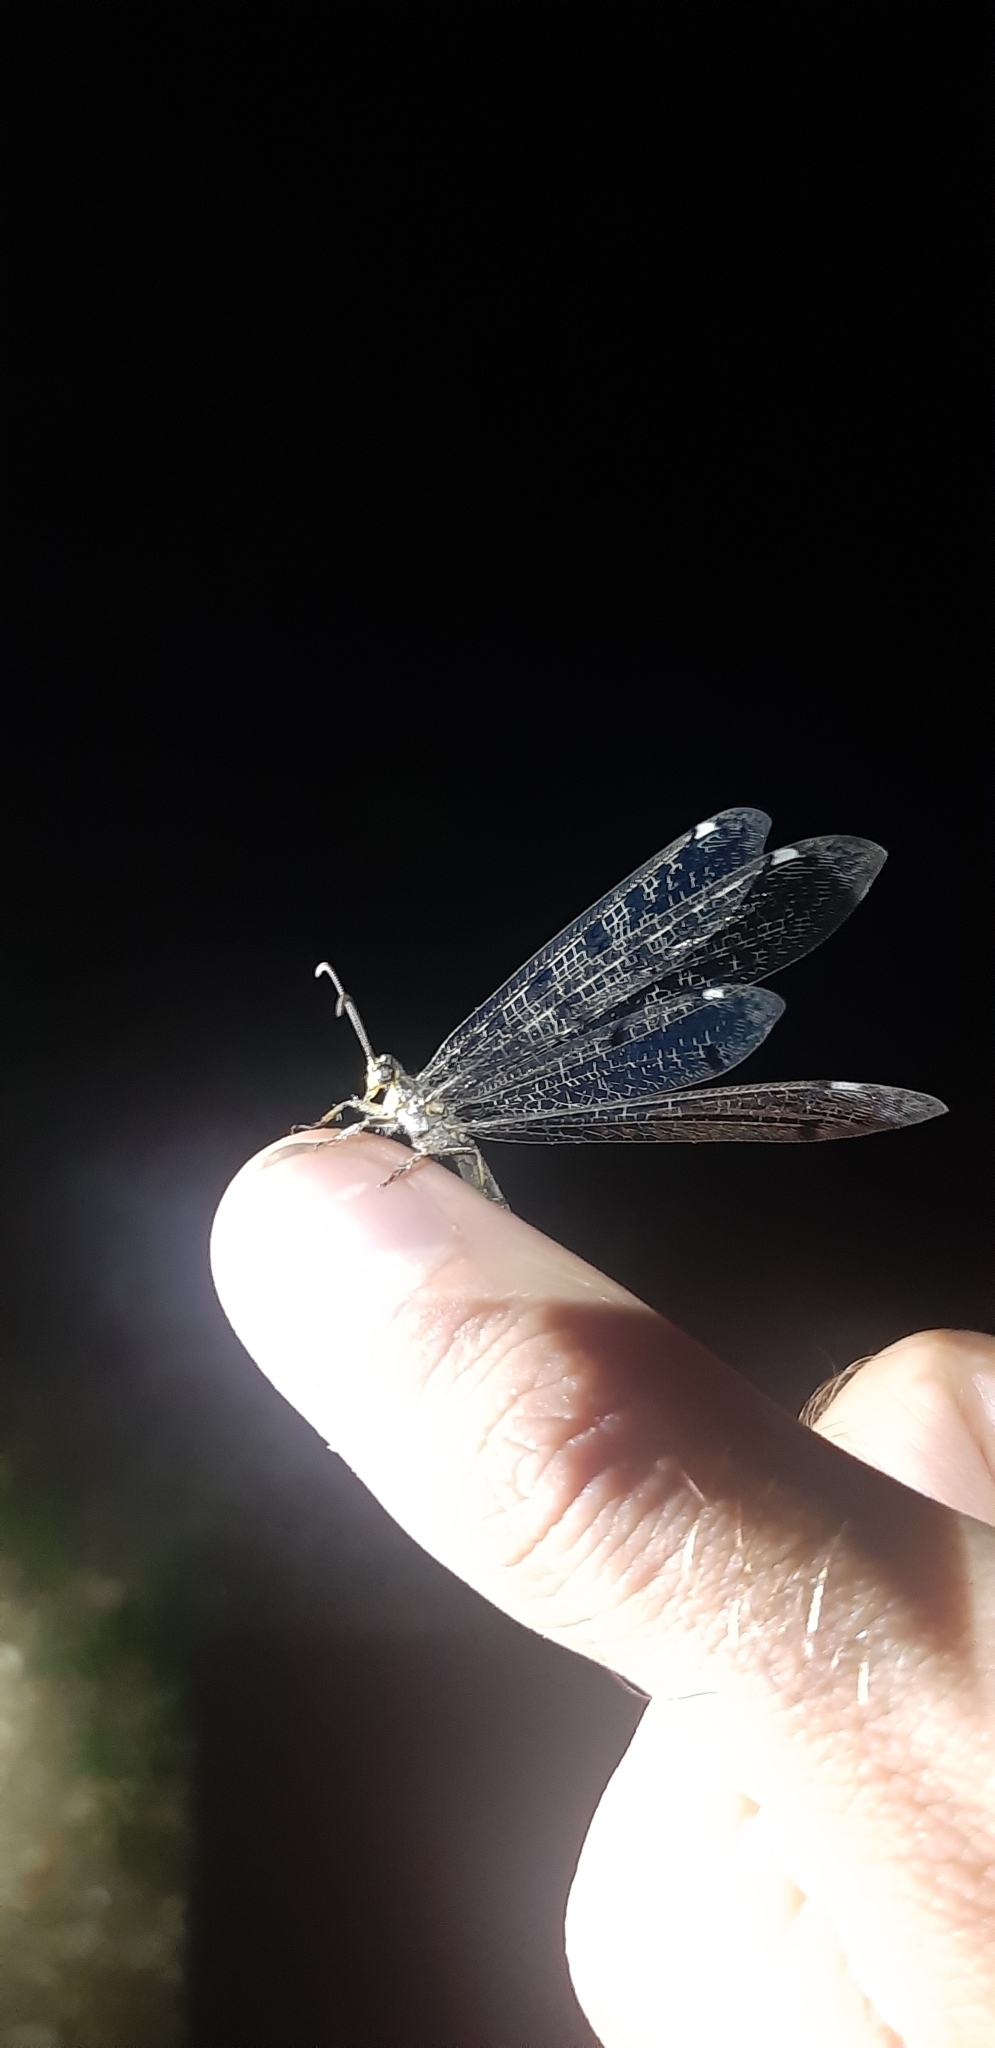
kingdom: Animalia
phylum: Arthropoda
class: Insecta
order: Neuroptera
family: Myrmeleontidae
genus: Distoleon
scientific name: Distoleon tetragrammicus
